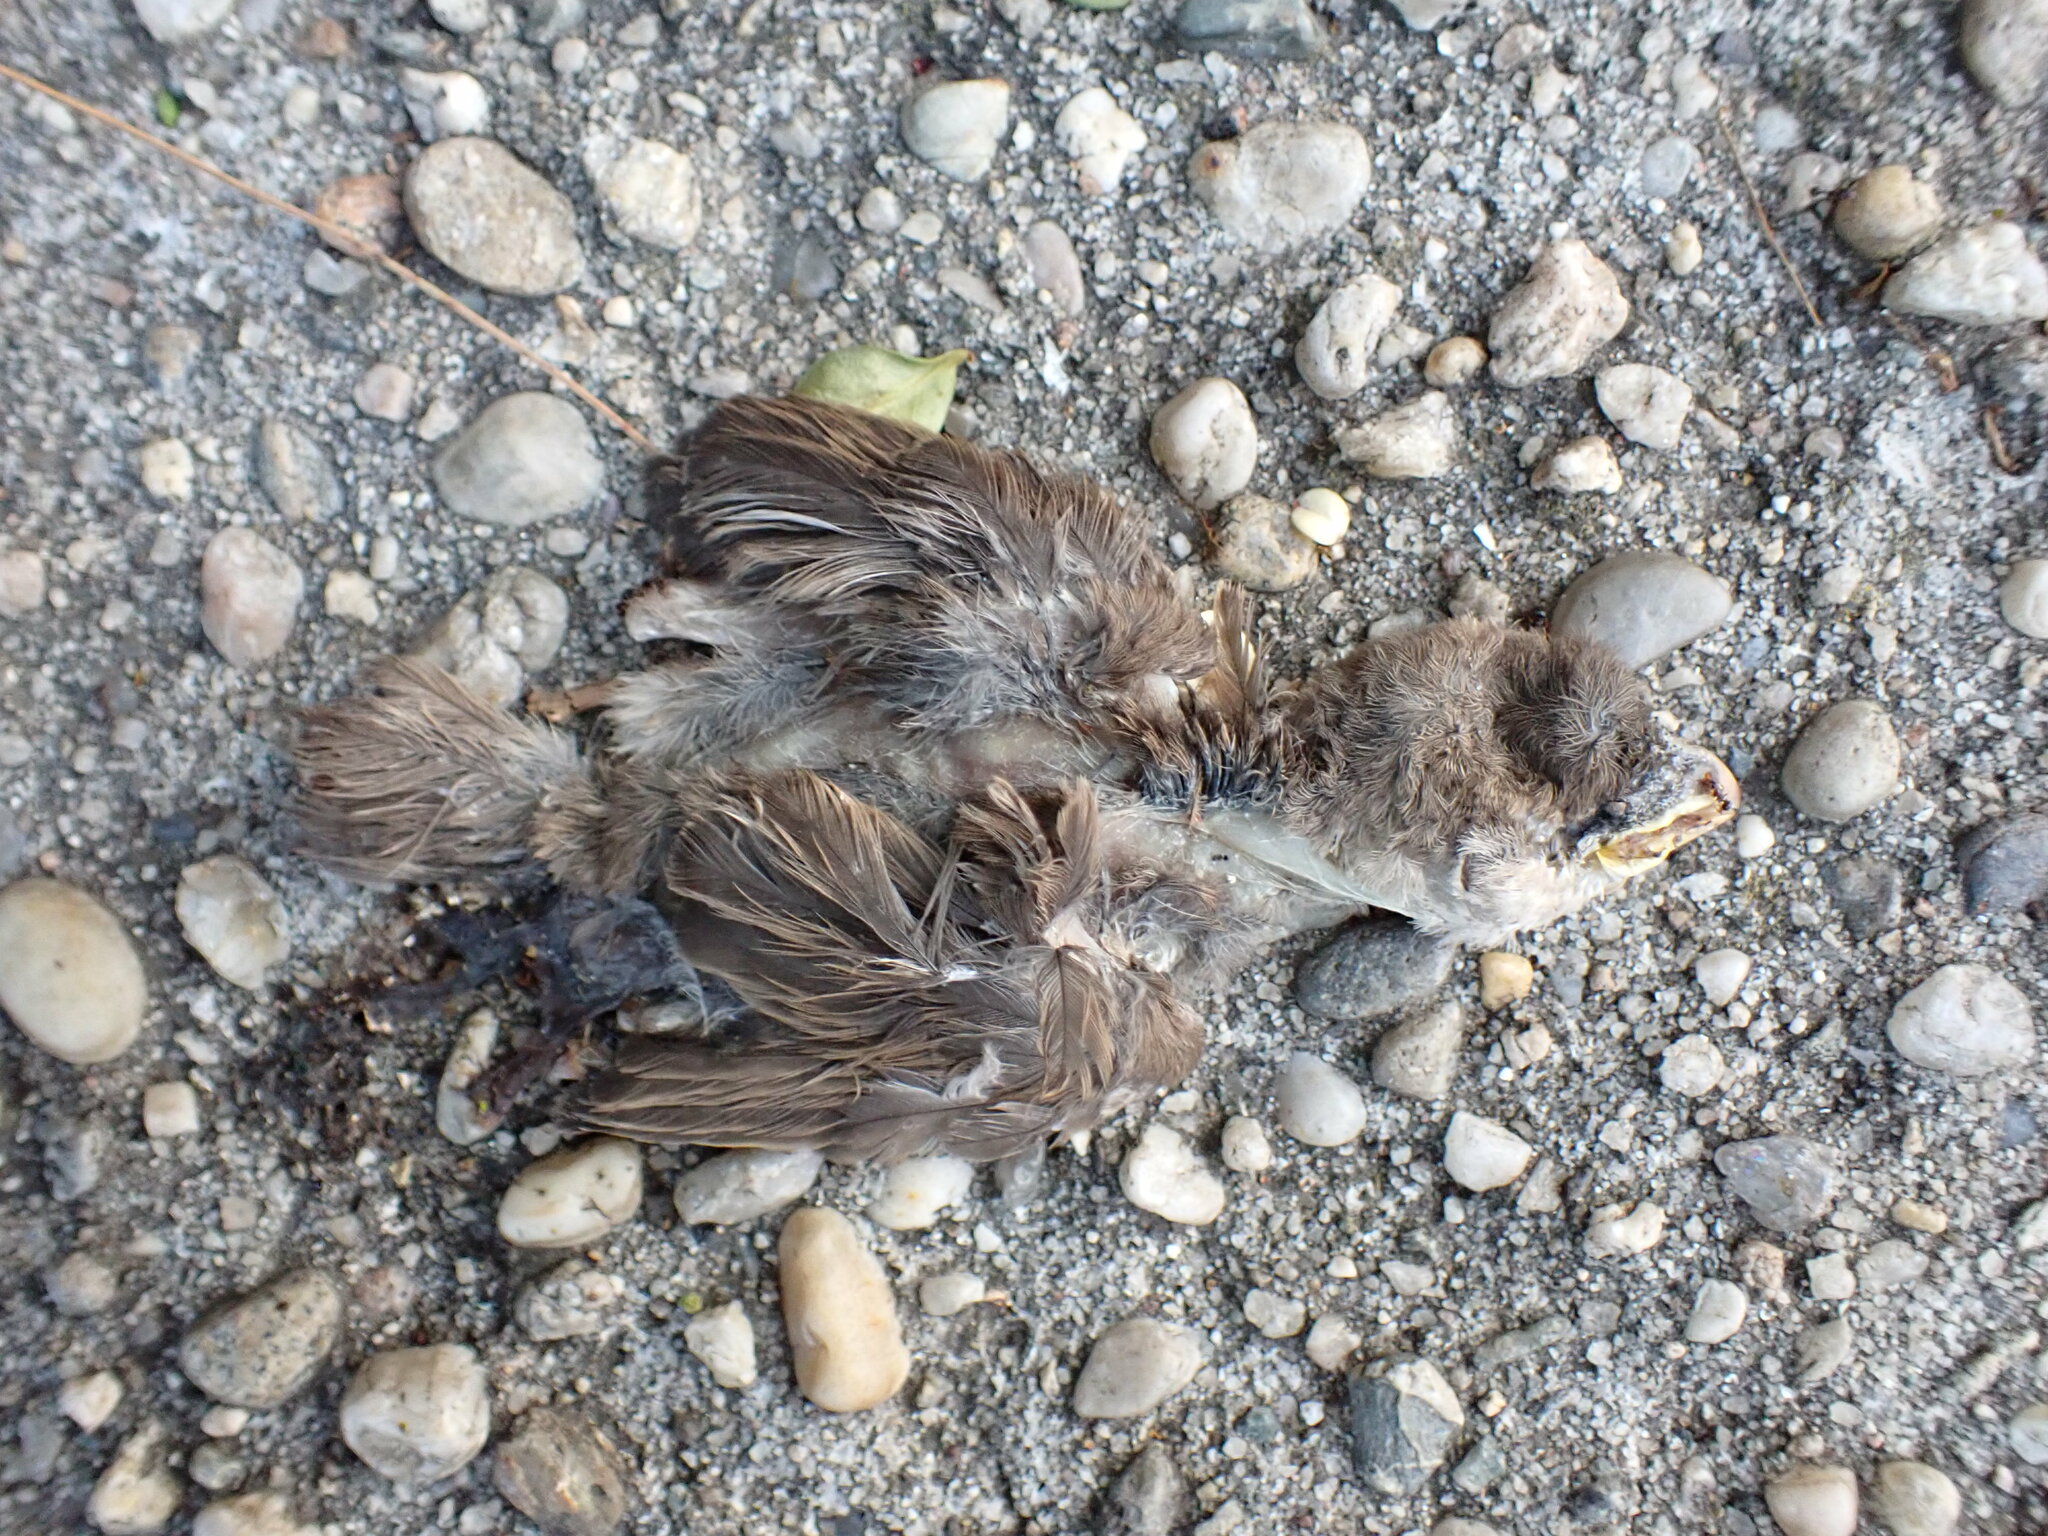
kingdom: Animalia
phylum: Chordata
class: Aves
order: Passeriformes
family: Passeridae
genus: Passer
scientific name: Passer domesticus
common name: House sparrow
